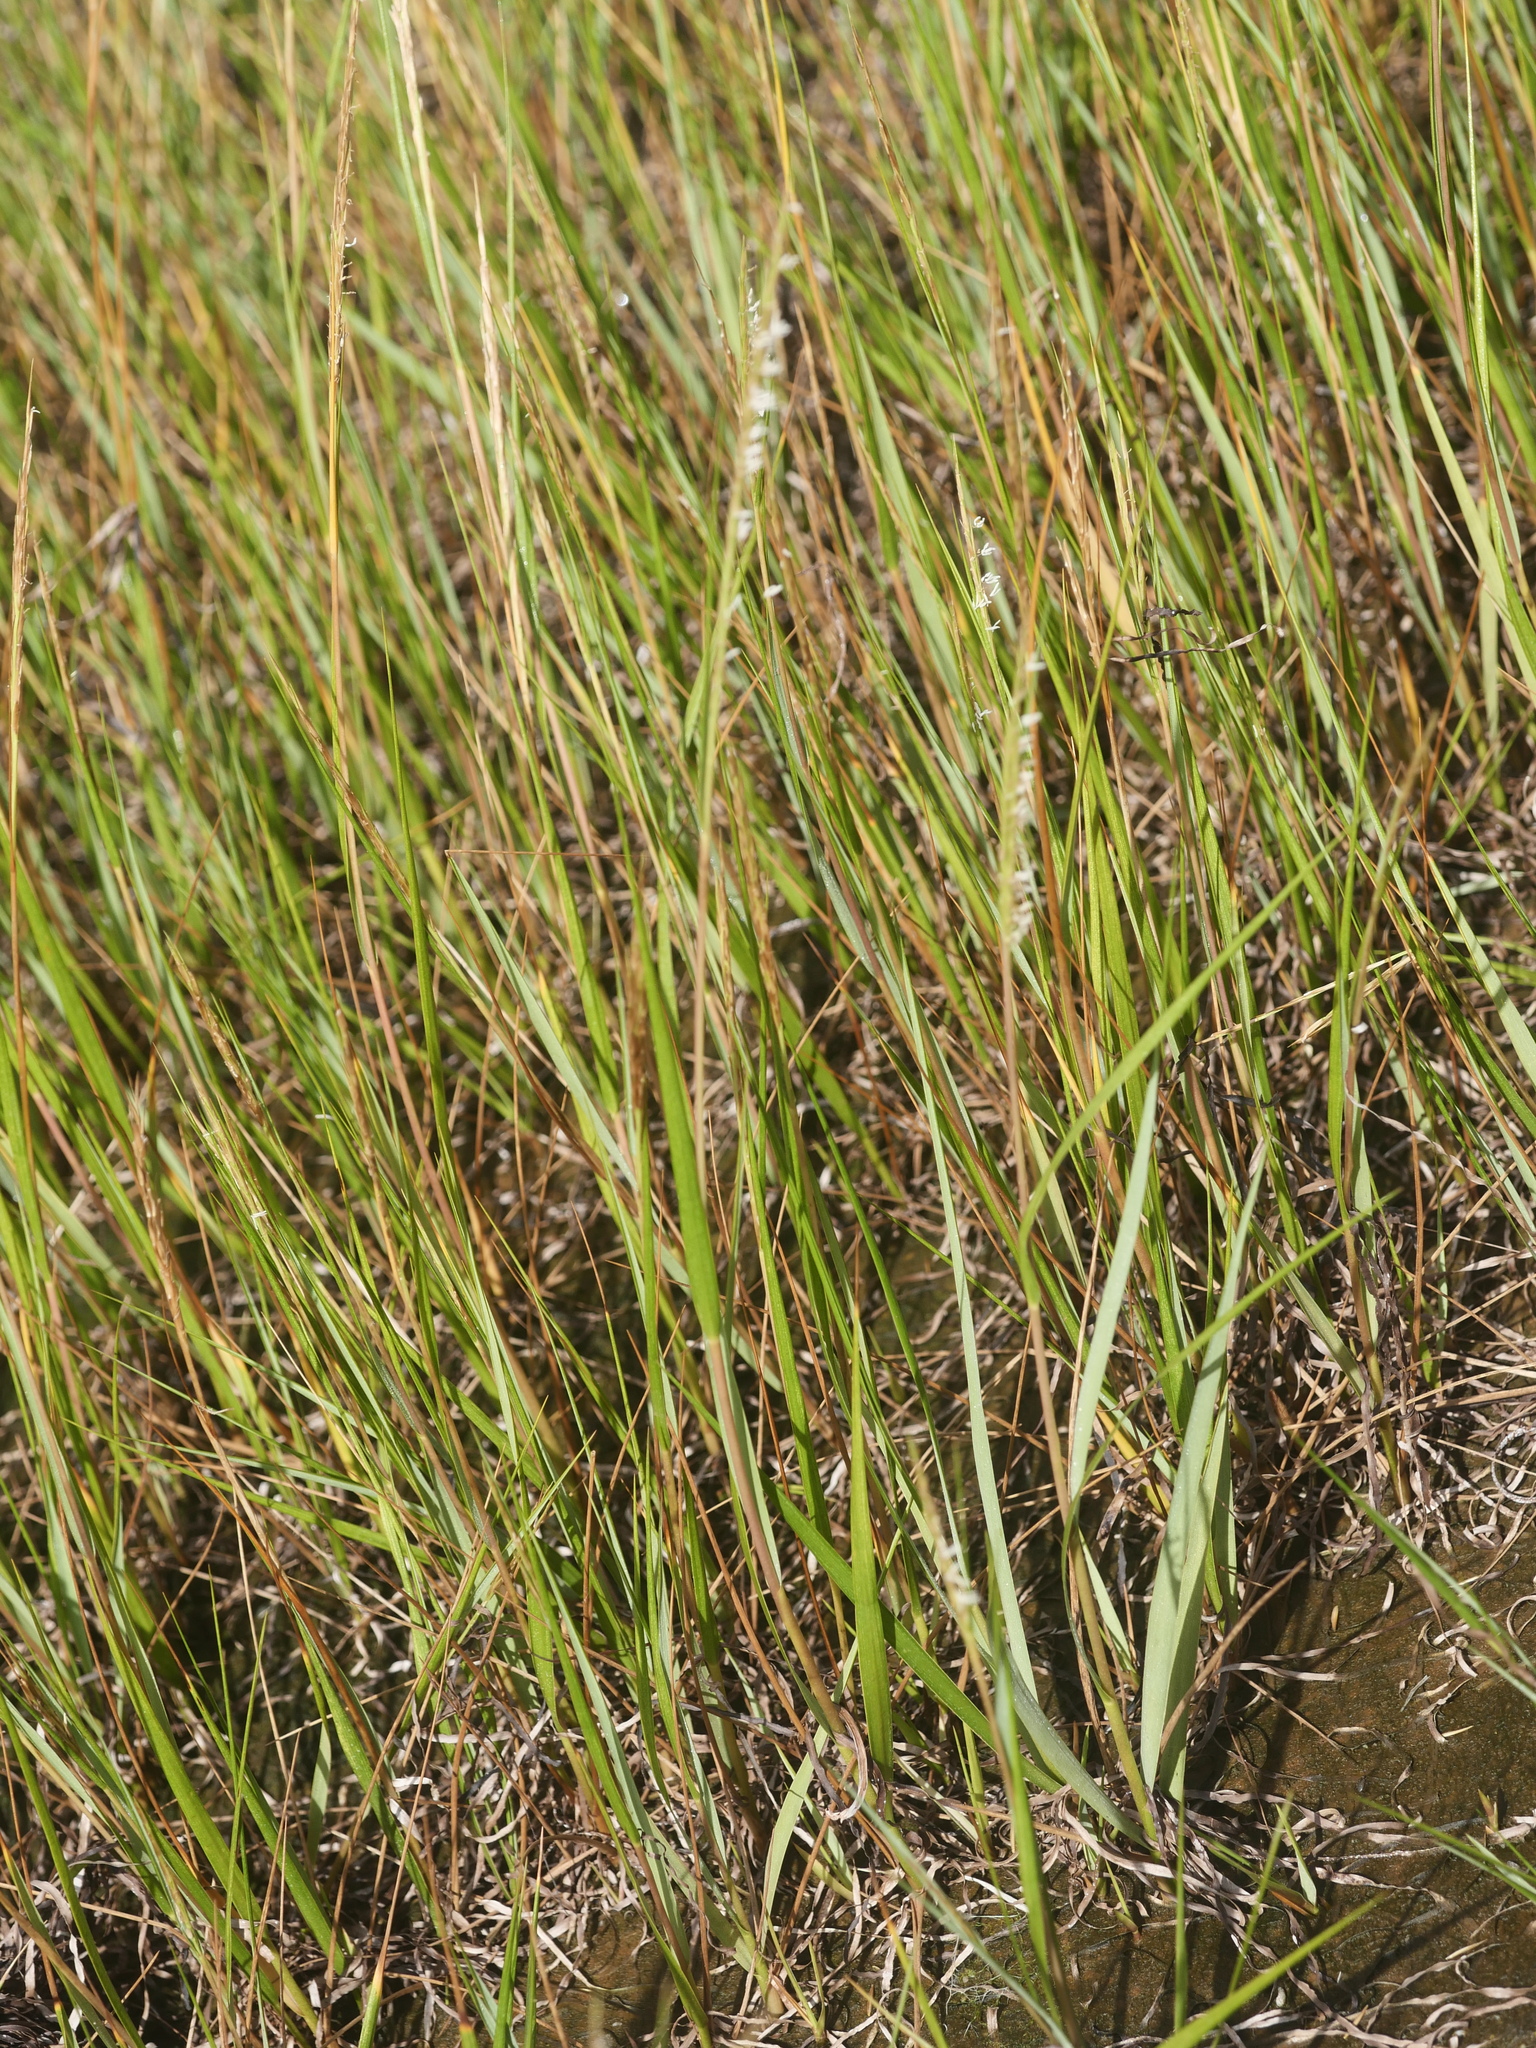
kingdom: Plantae
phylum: Tracheophyta
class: Liliopsida
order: Poales
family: Poaceae
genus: Sporobolus
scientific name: Sporobolus alterniflorus
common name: Atlantic cordgrass
